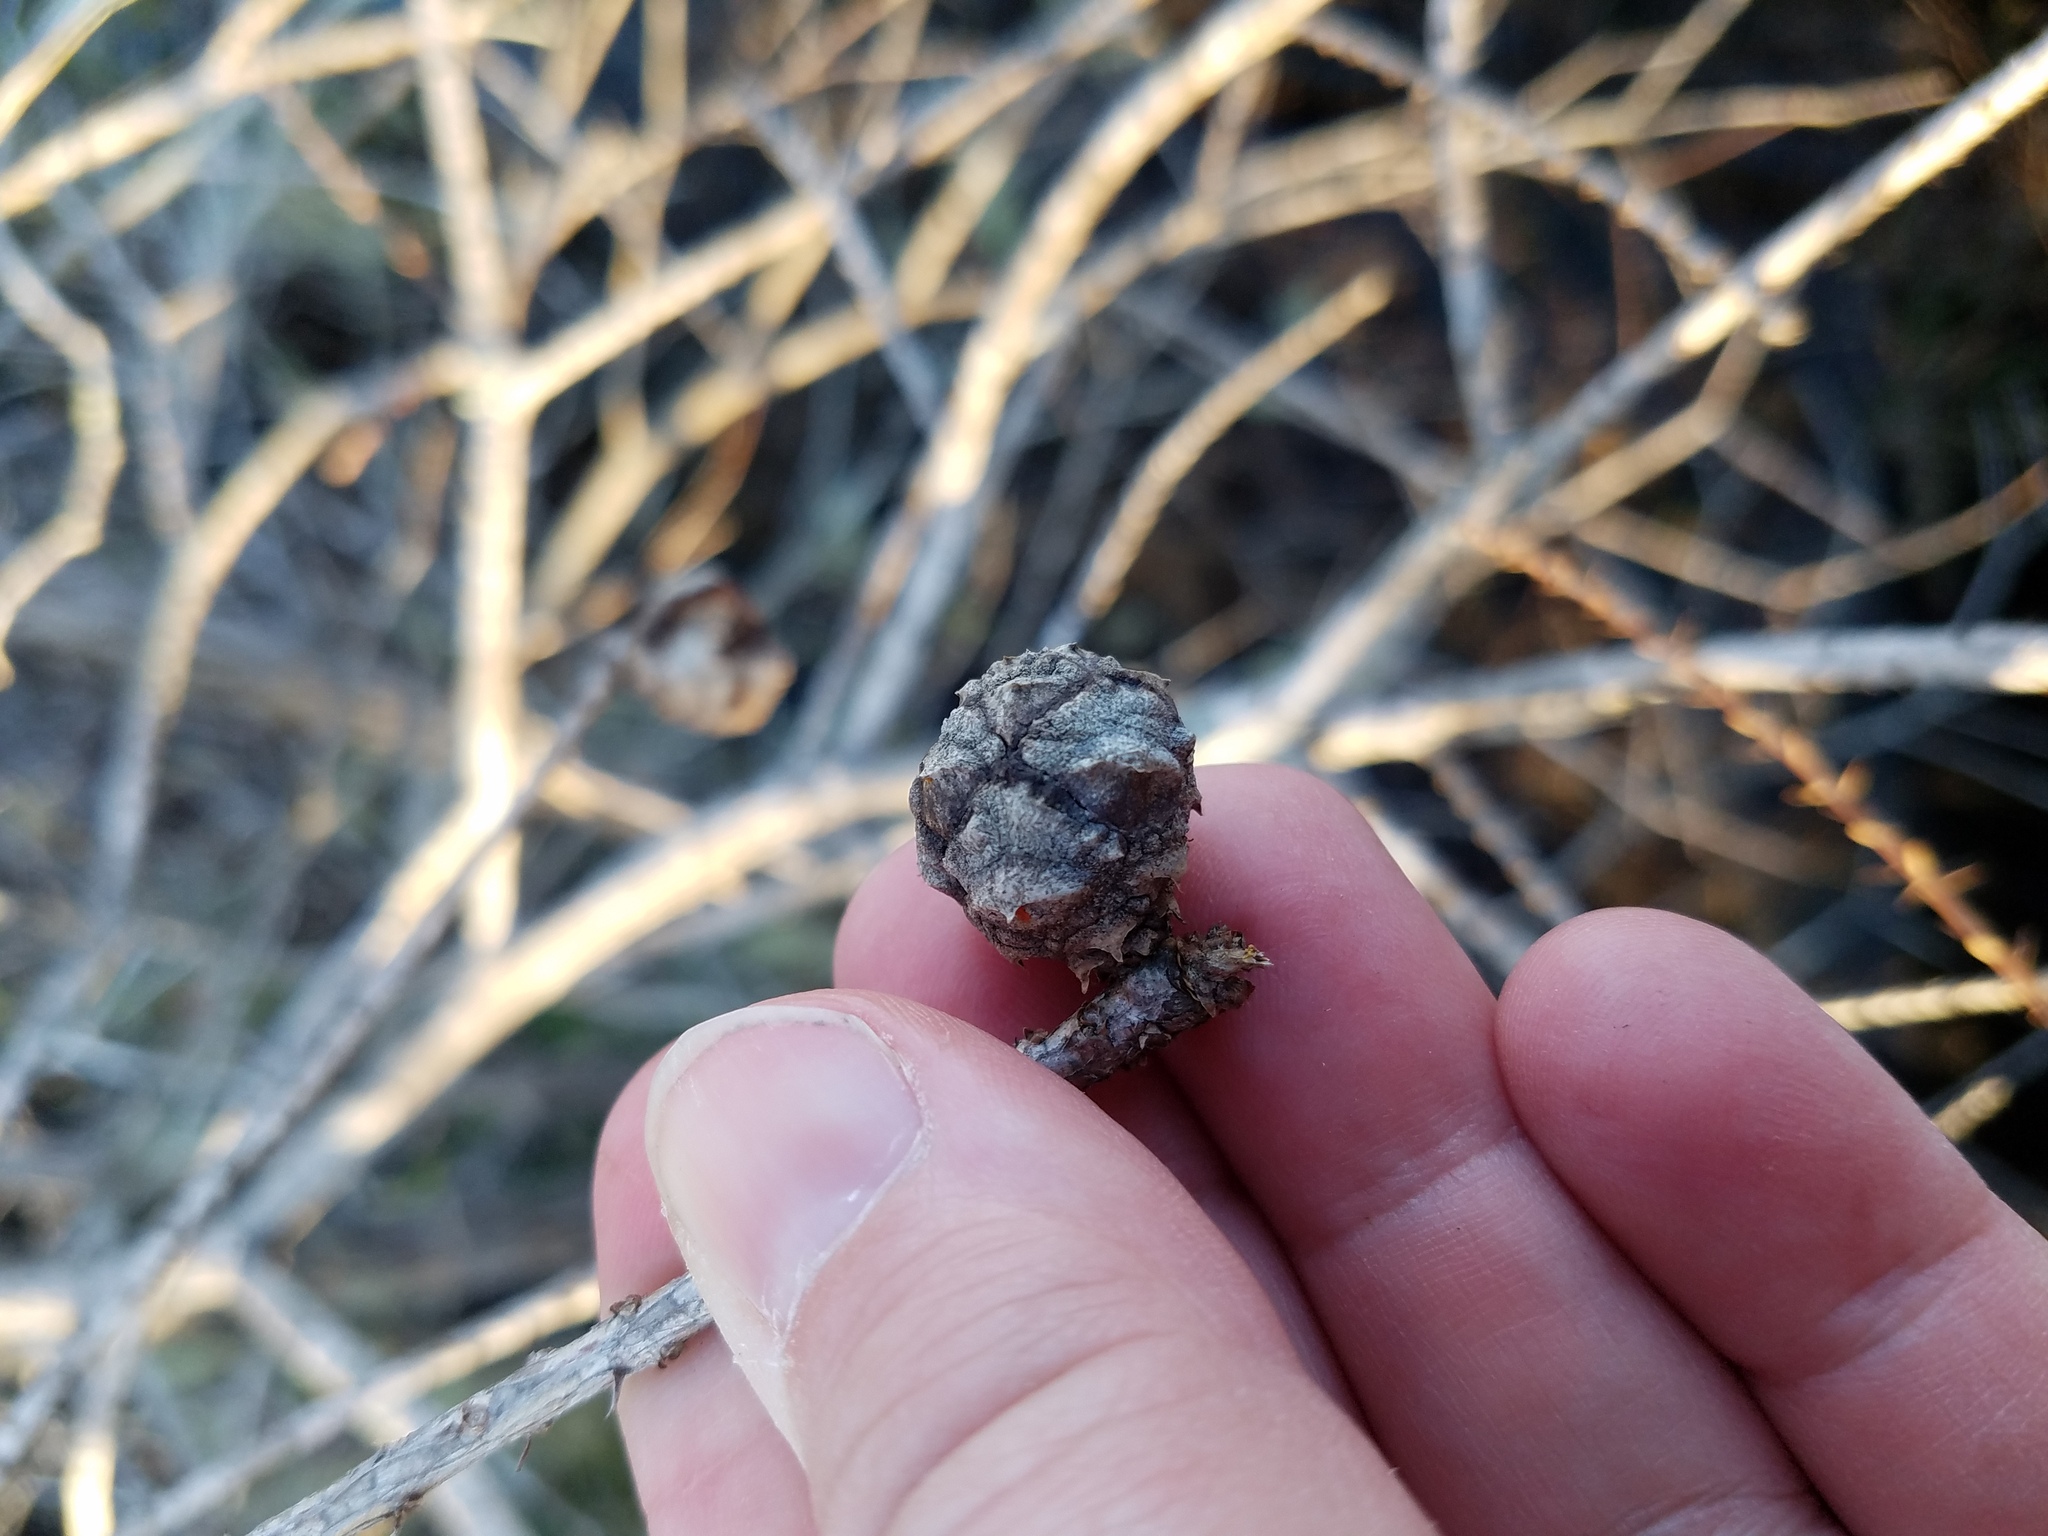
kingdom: Plantae
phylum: Tracheophyta
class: Pinopsida
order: Pinales
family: Cupressaceae
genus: Taxodium
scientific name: Taxodium distichum
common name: Bald cypress
